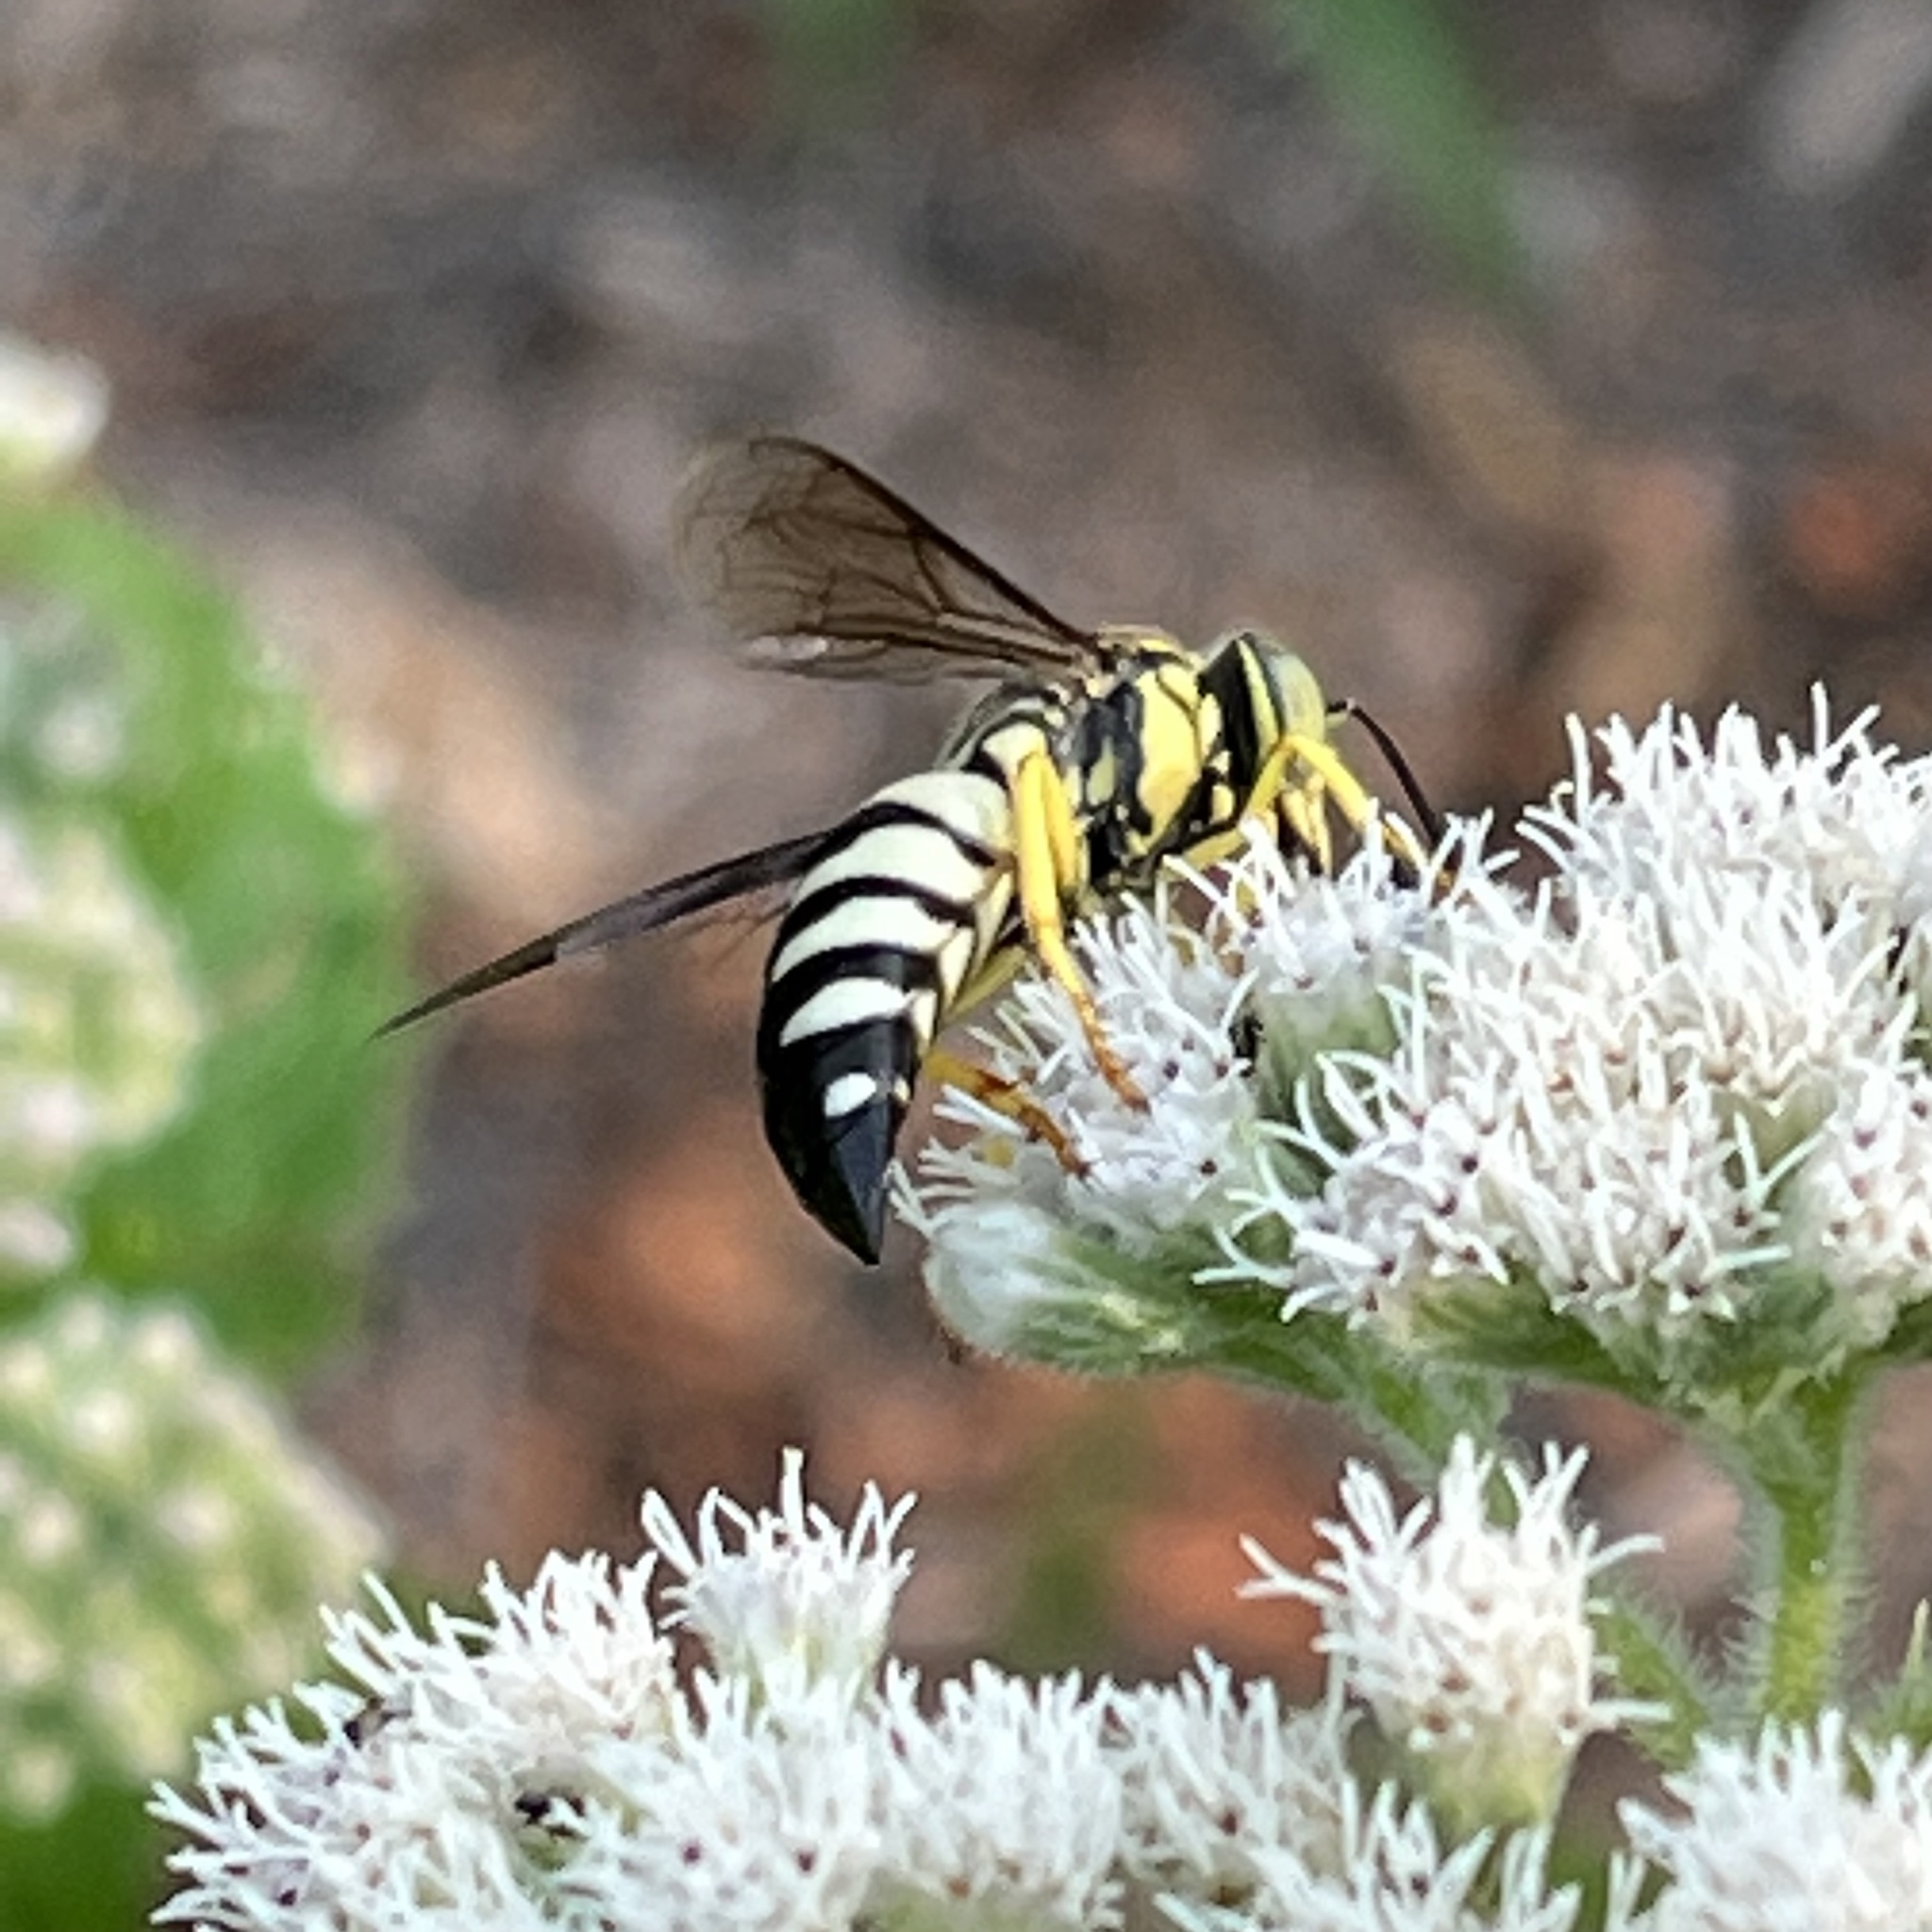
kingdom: Animalia
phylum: Arthropoda
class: Insecta
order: Hymenoptera
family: Crabronidae
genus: Bicyrtes
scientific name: Bicyrtes quadrifasciatus
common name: Four-banded stink bug hunter wasp
